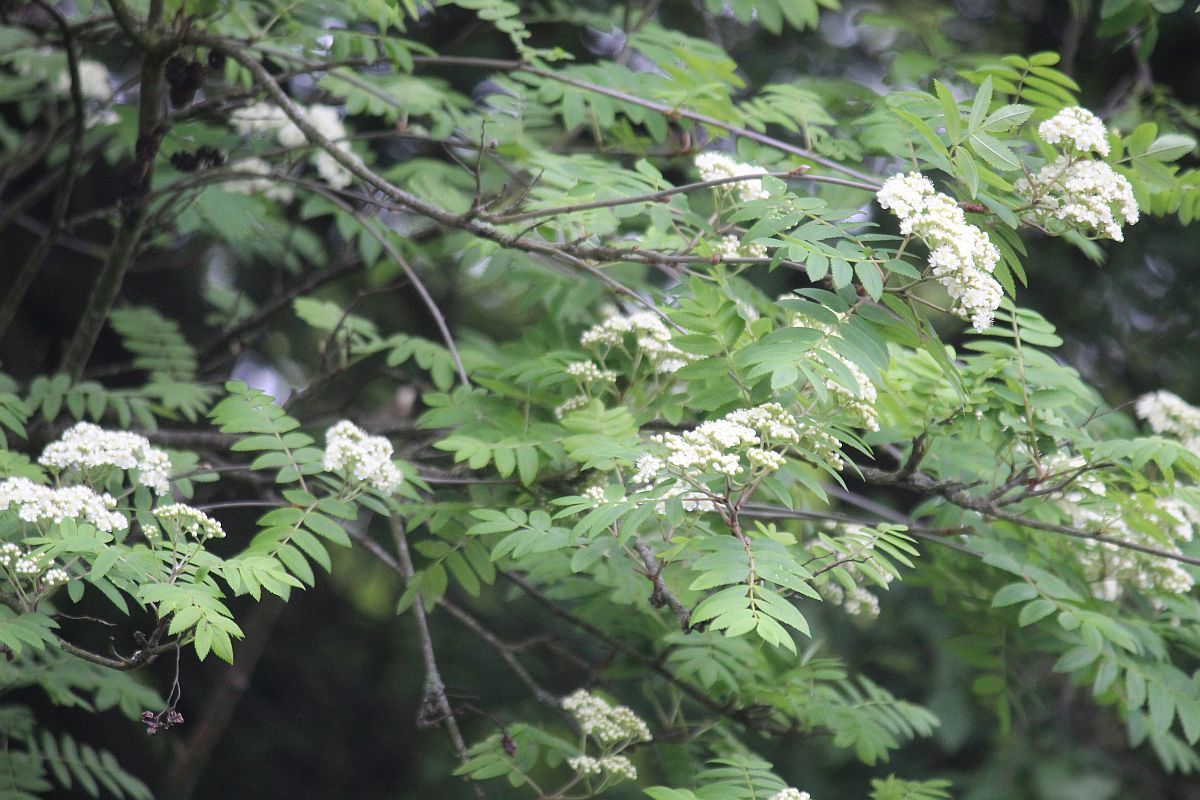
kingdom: Plantae
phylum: Tracheophyta
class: Magnoliopsida
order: Rosales
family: Rosaceae
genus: Sorbus
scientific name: Sorbus aucuparia
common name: Rowan
